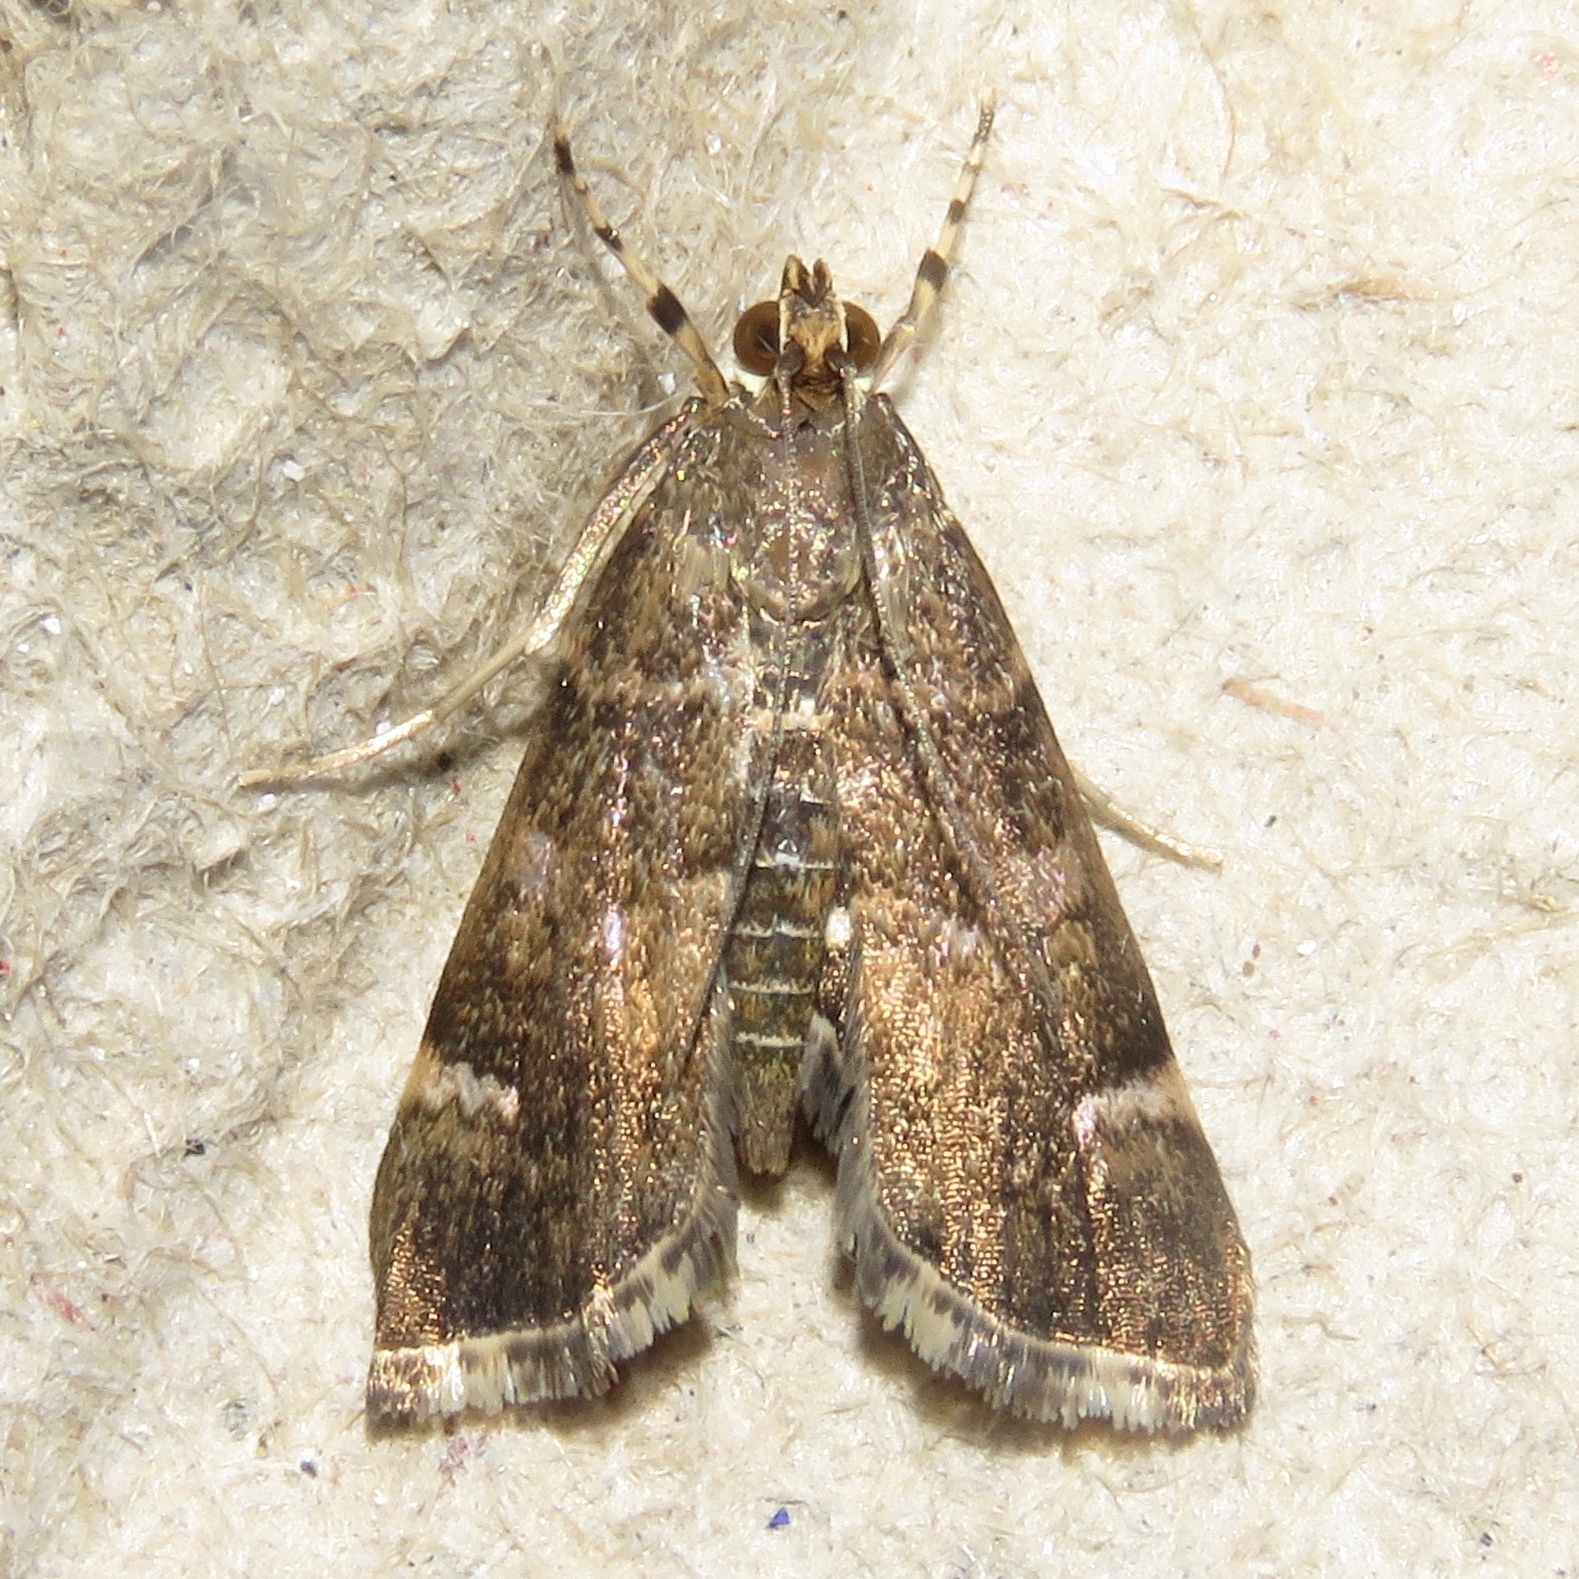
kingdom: Animalia
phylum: Arthropoda
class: Insecta
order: Lepidoptera
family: Crambidae
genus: Hymenia
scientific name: Hymenia perspectalis
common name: Spotted beet webworm
